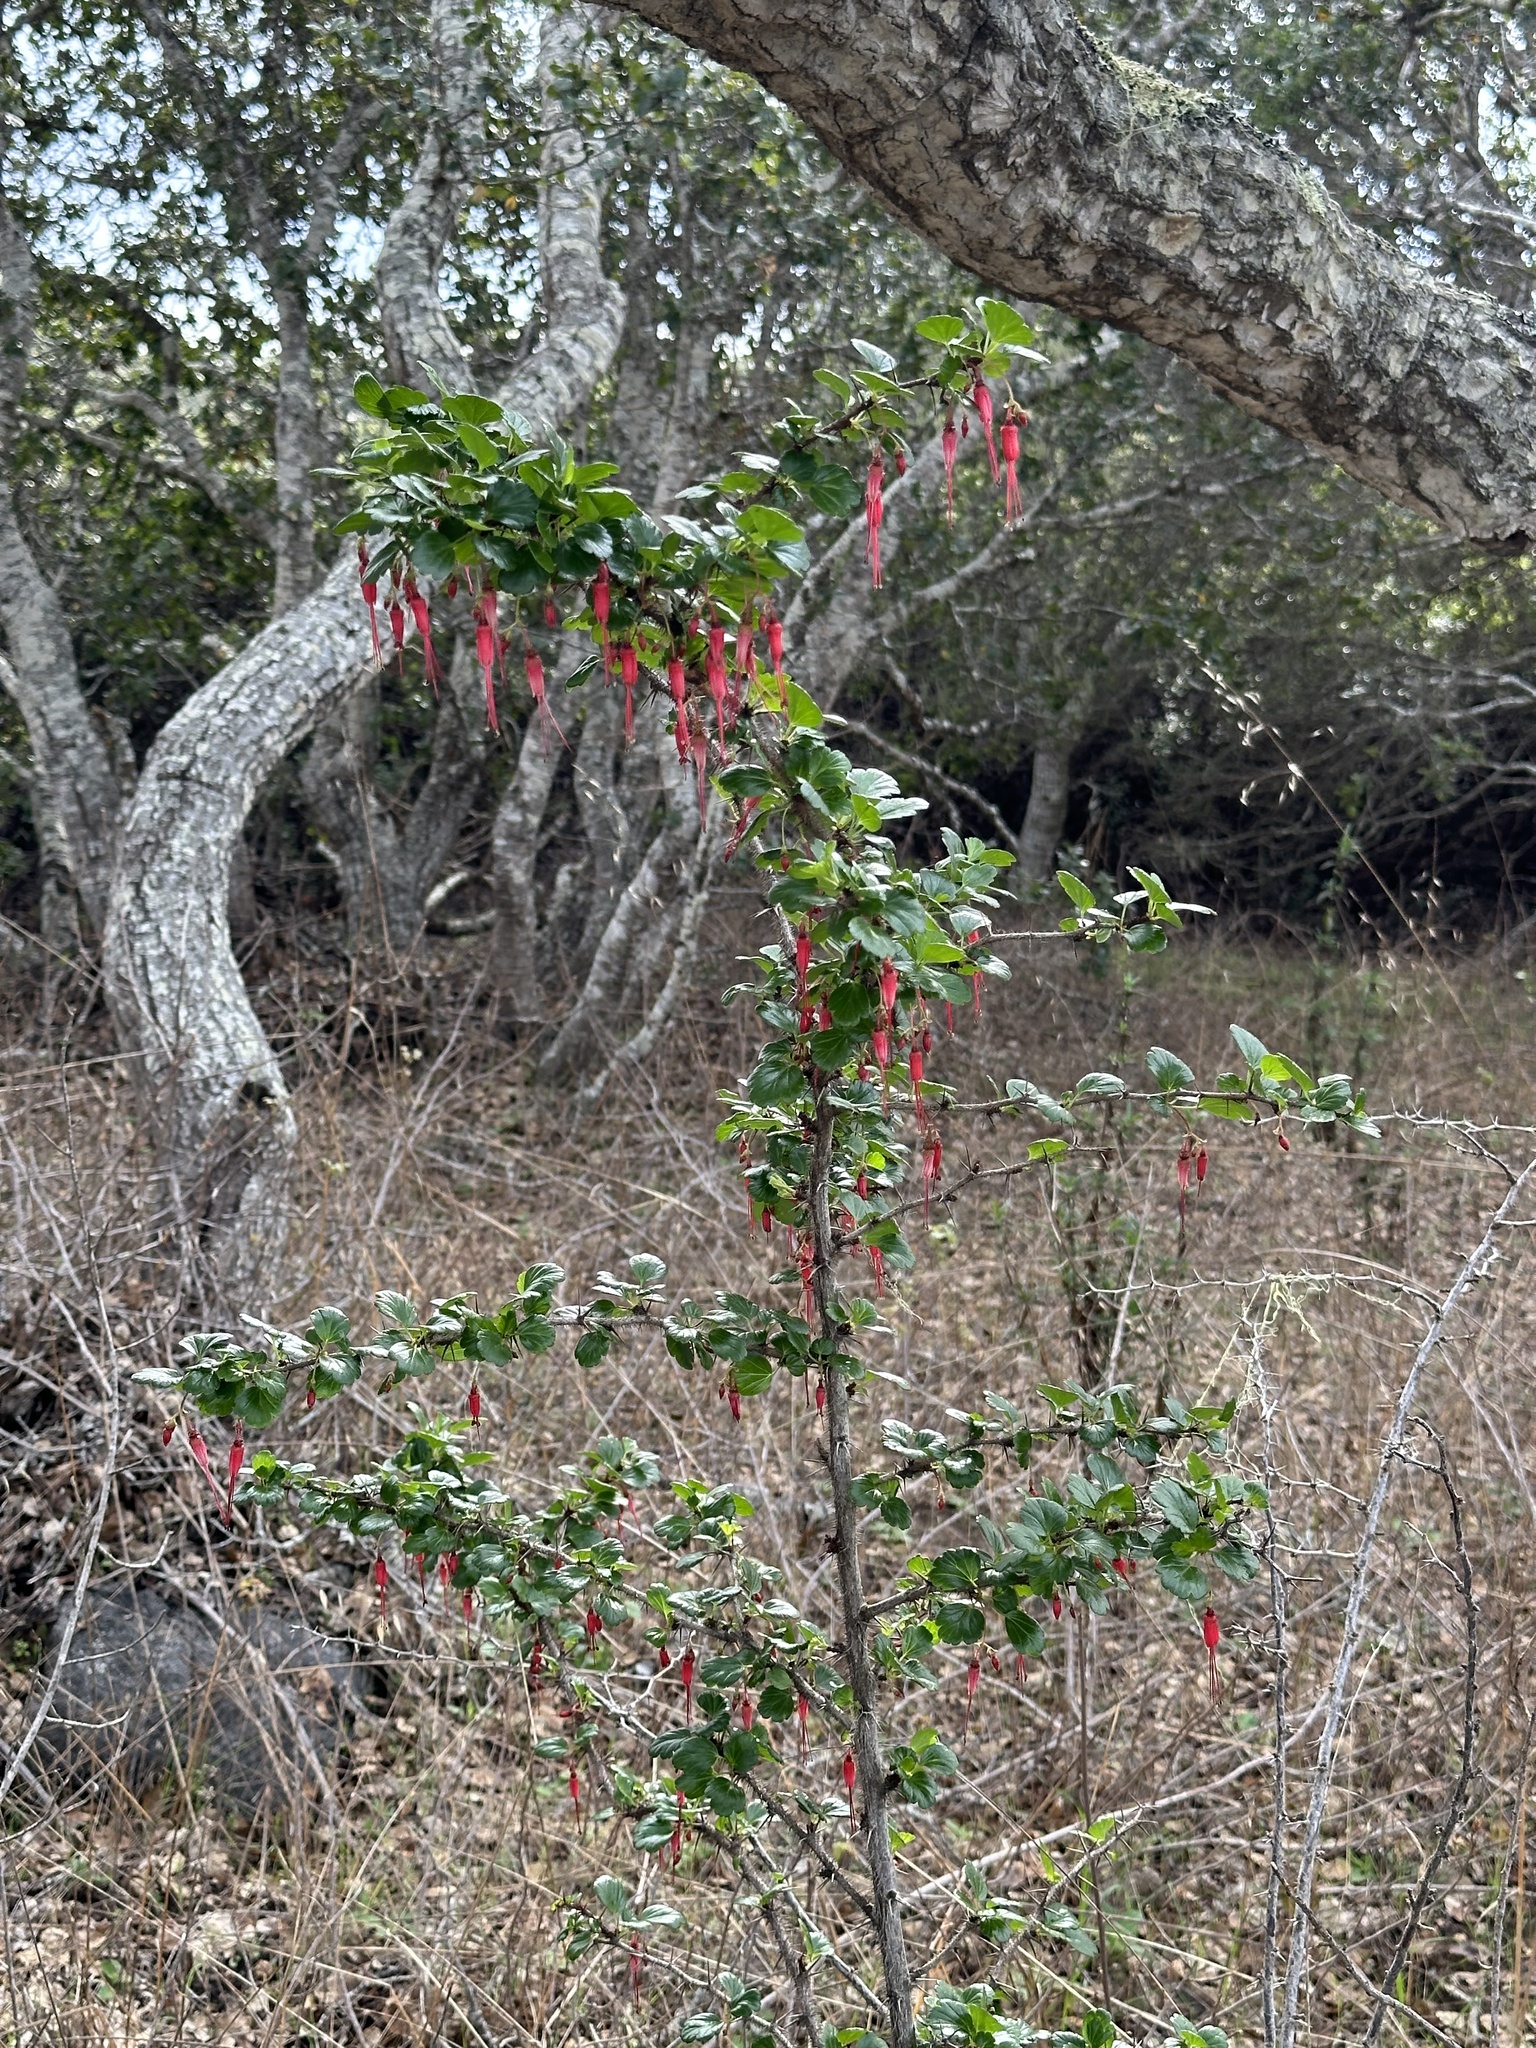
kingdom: Plantae
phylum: Tracheophyta
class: Magnoliopsida
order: Saxifragales
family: Grossulariaceae
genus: Ribes
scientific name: Ribes speciosum
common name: Fuchsia-flower gooseberry
